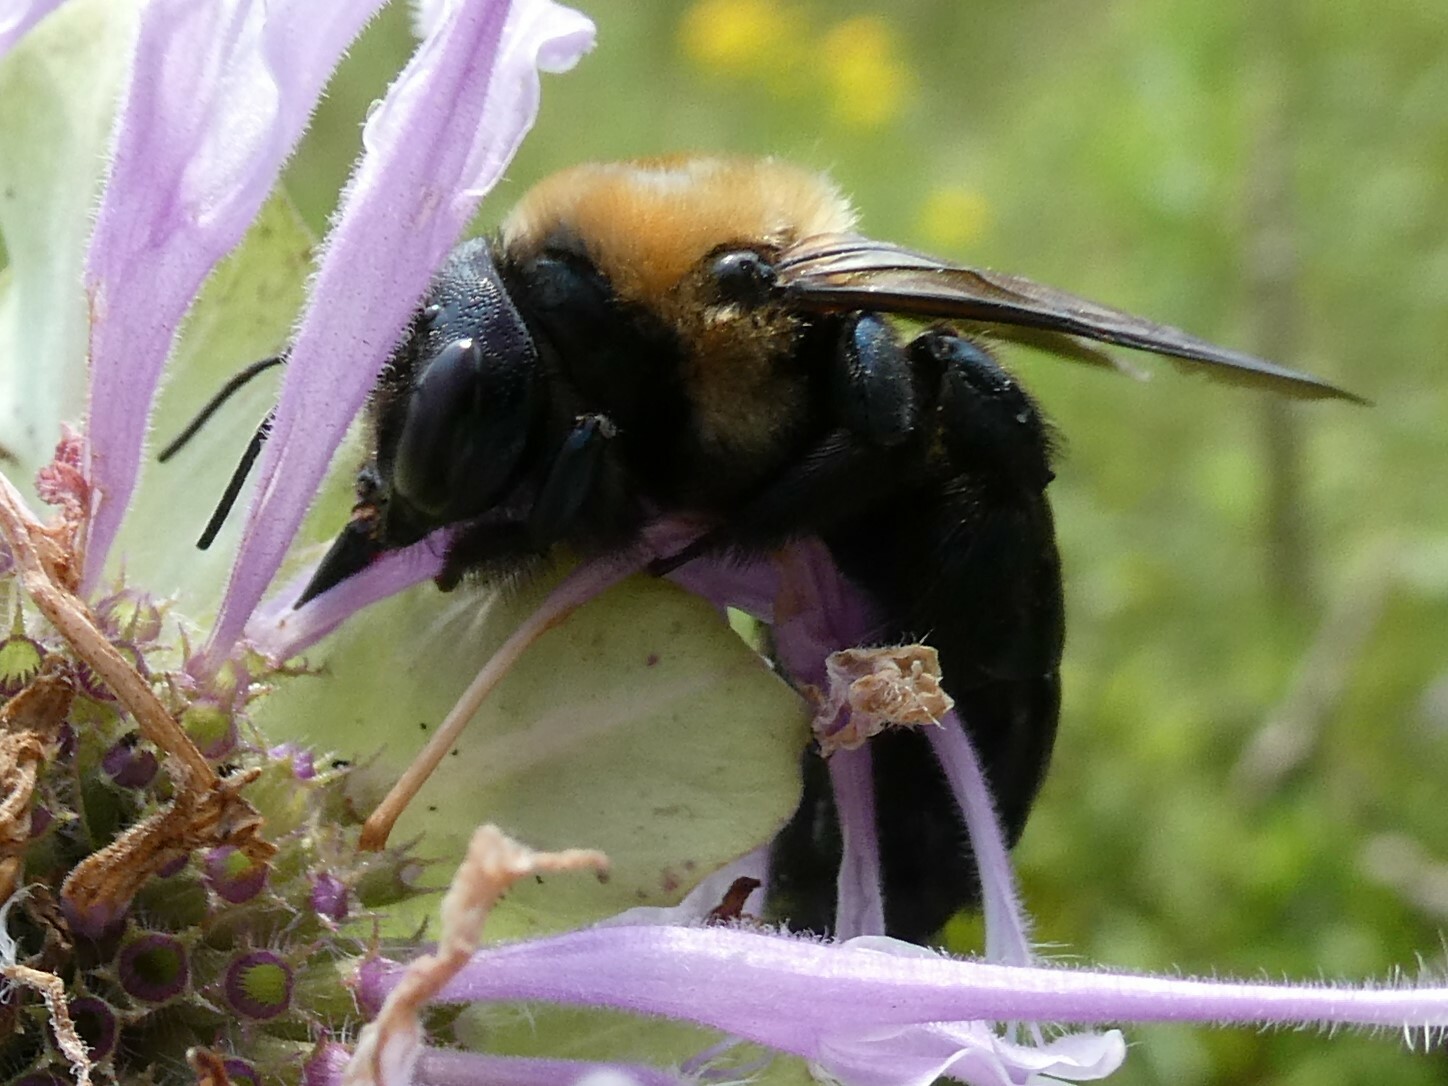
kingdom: Animalia
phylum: Arthropoda
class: Insecta
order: Hymenoptera
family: Apidae
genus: Xylocopa
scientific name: Xylocopa virginica
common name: Carpenter bee
